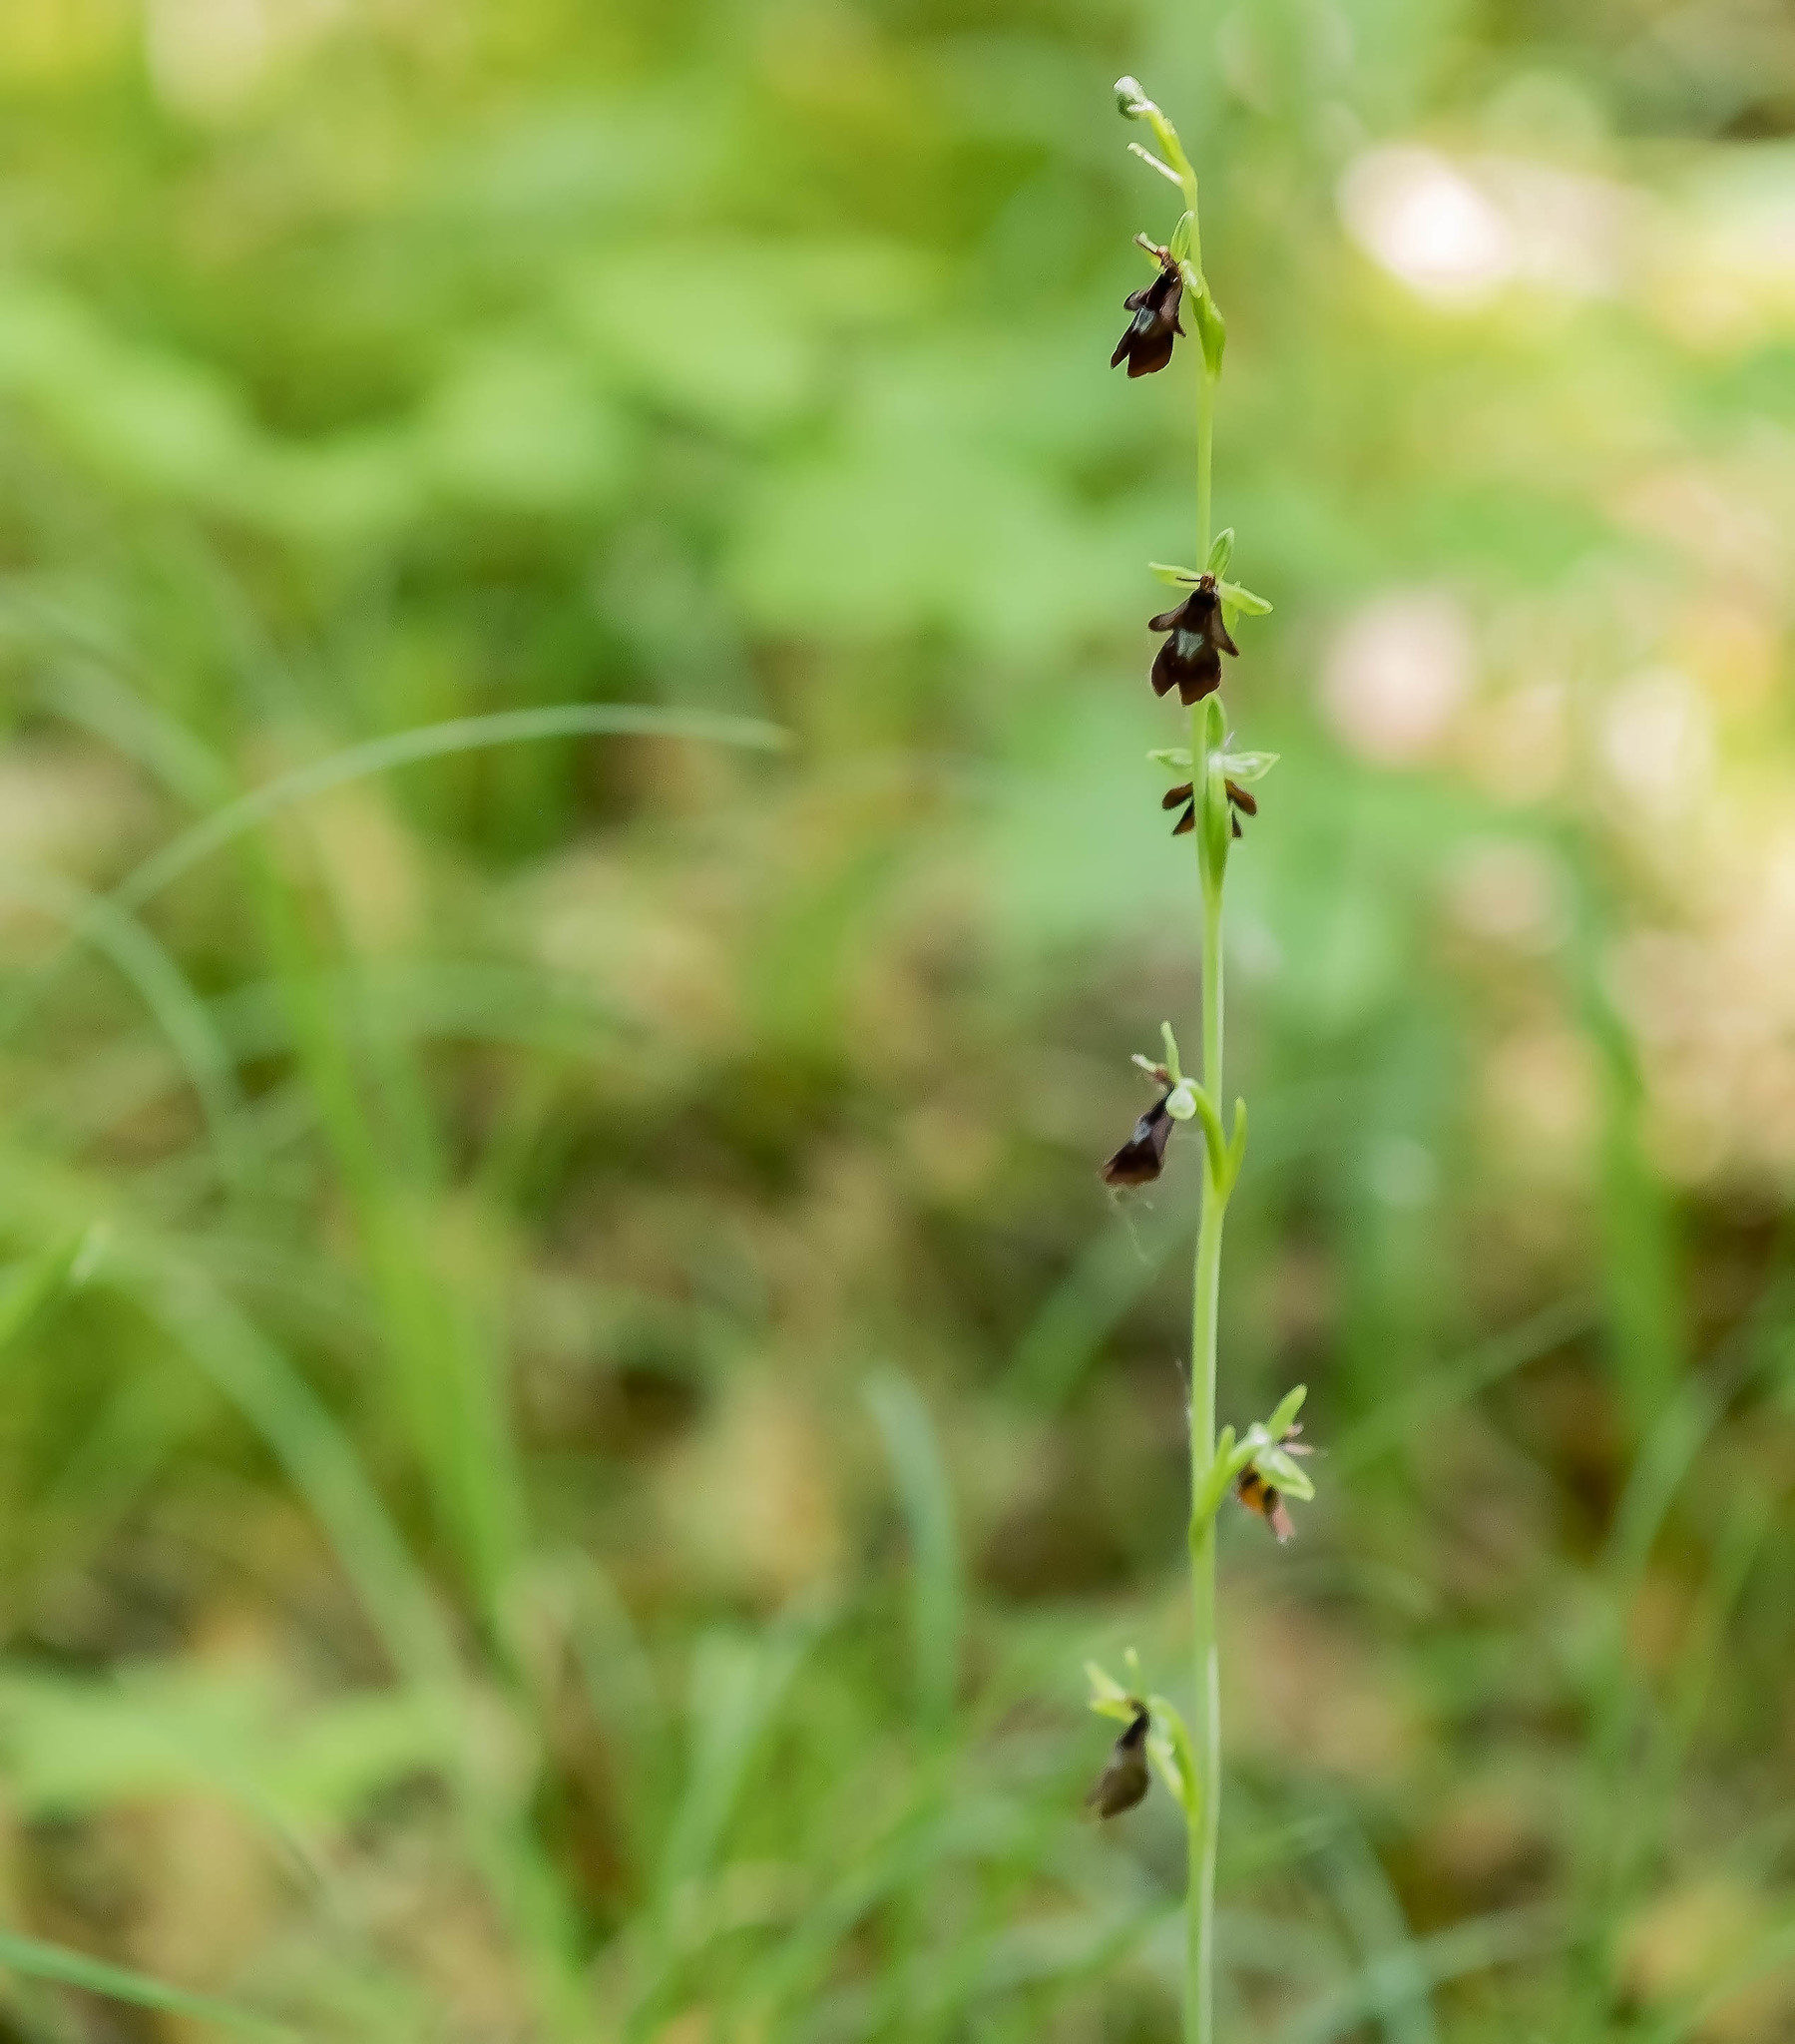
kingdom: Plantae
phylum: Tracheophyta
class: Liliopsida
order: Asparagales
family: Orchidaceae
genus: Ophrys
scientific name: Ophrys insectifera
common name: Fly orchid
